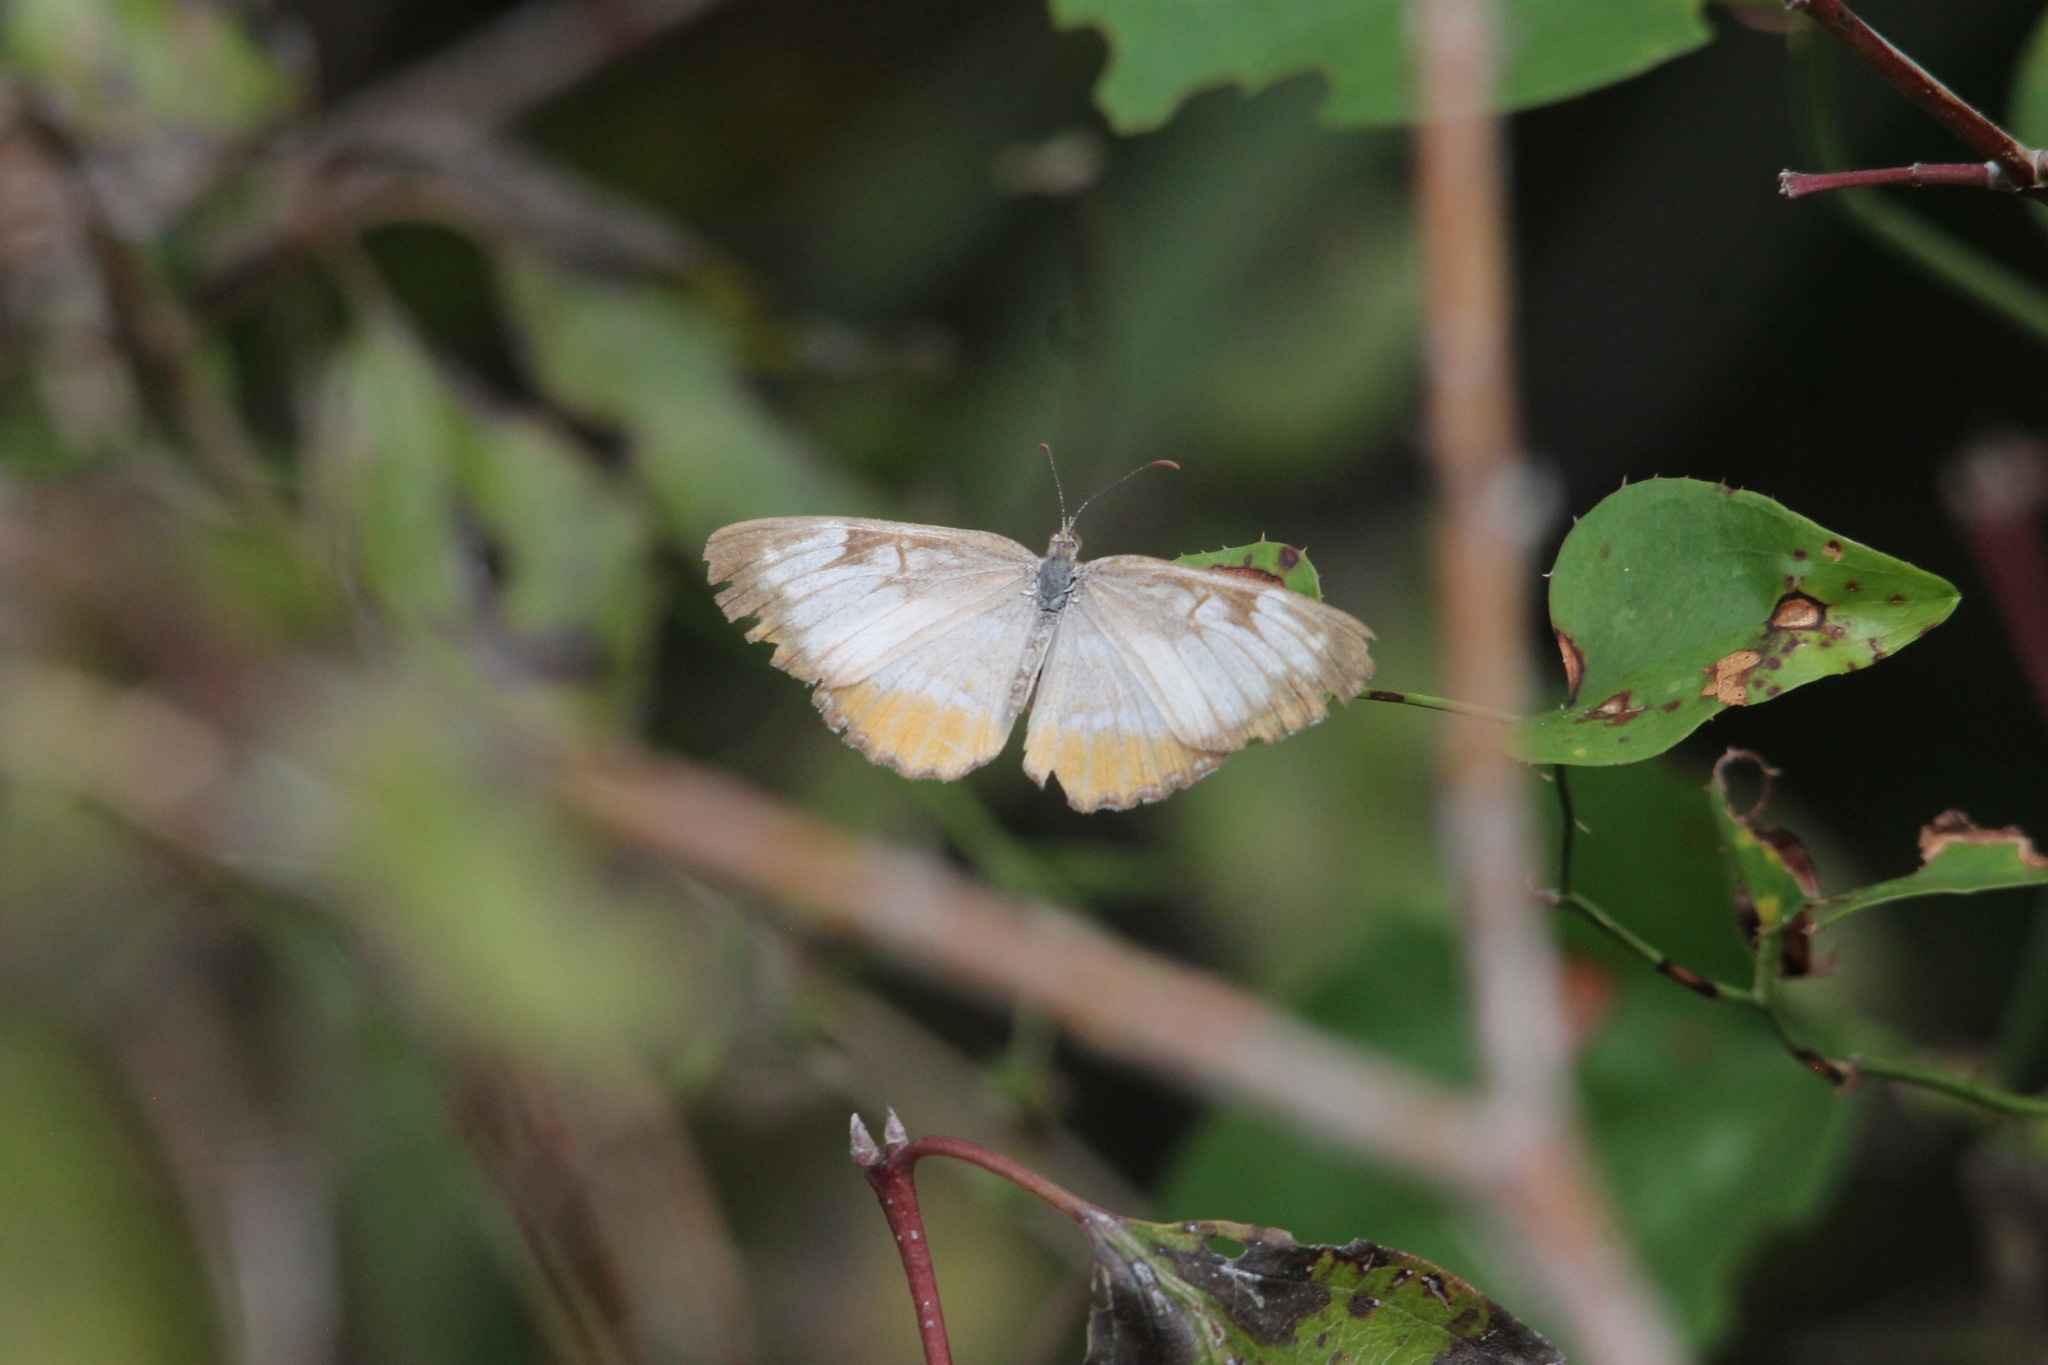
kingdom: Animalia
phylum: Arthropoda
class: Insecta
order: Lepidoptera
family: Nymphalidae
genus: Mestra
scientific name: Mestra amymone
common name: Common mestra
